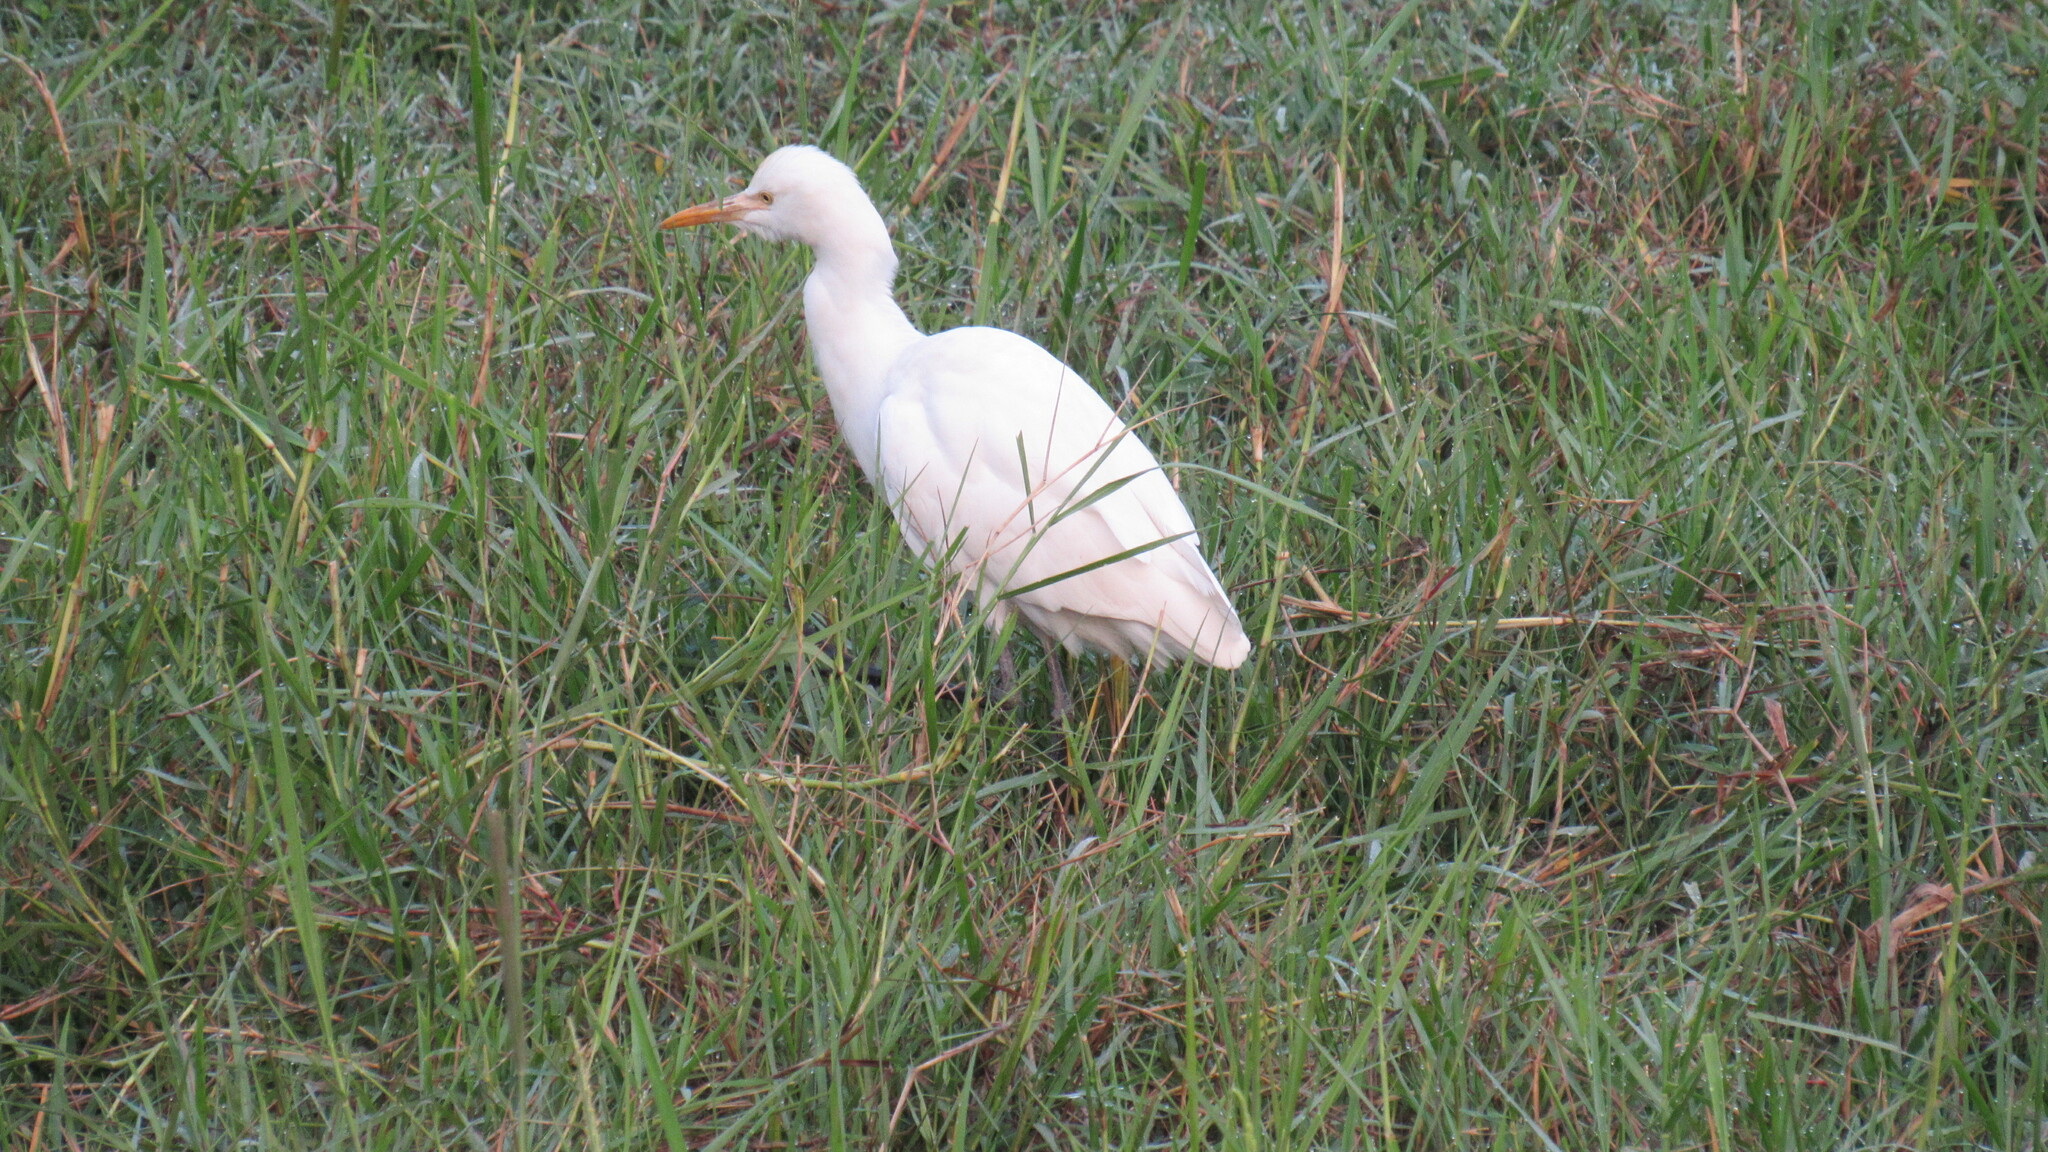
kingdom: Animalia
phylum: Chordata
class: Aves
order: Pelecaniformes
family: Ardeidae
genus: Bubulcus
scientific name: Bubulcus coromandus
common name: Eastern cattle egret
